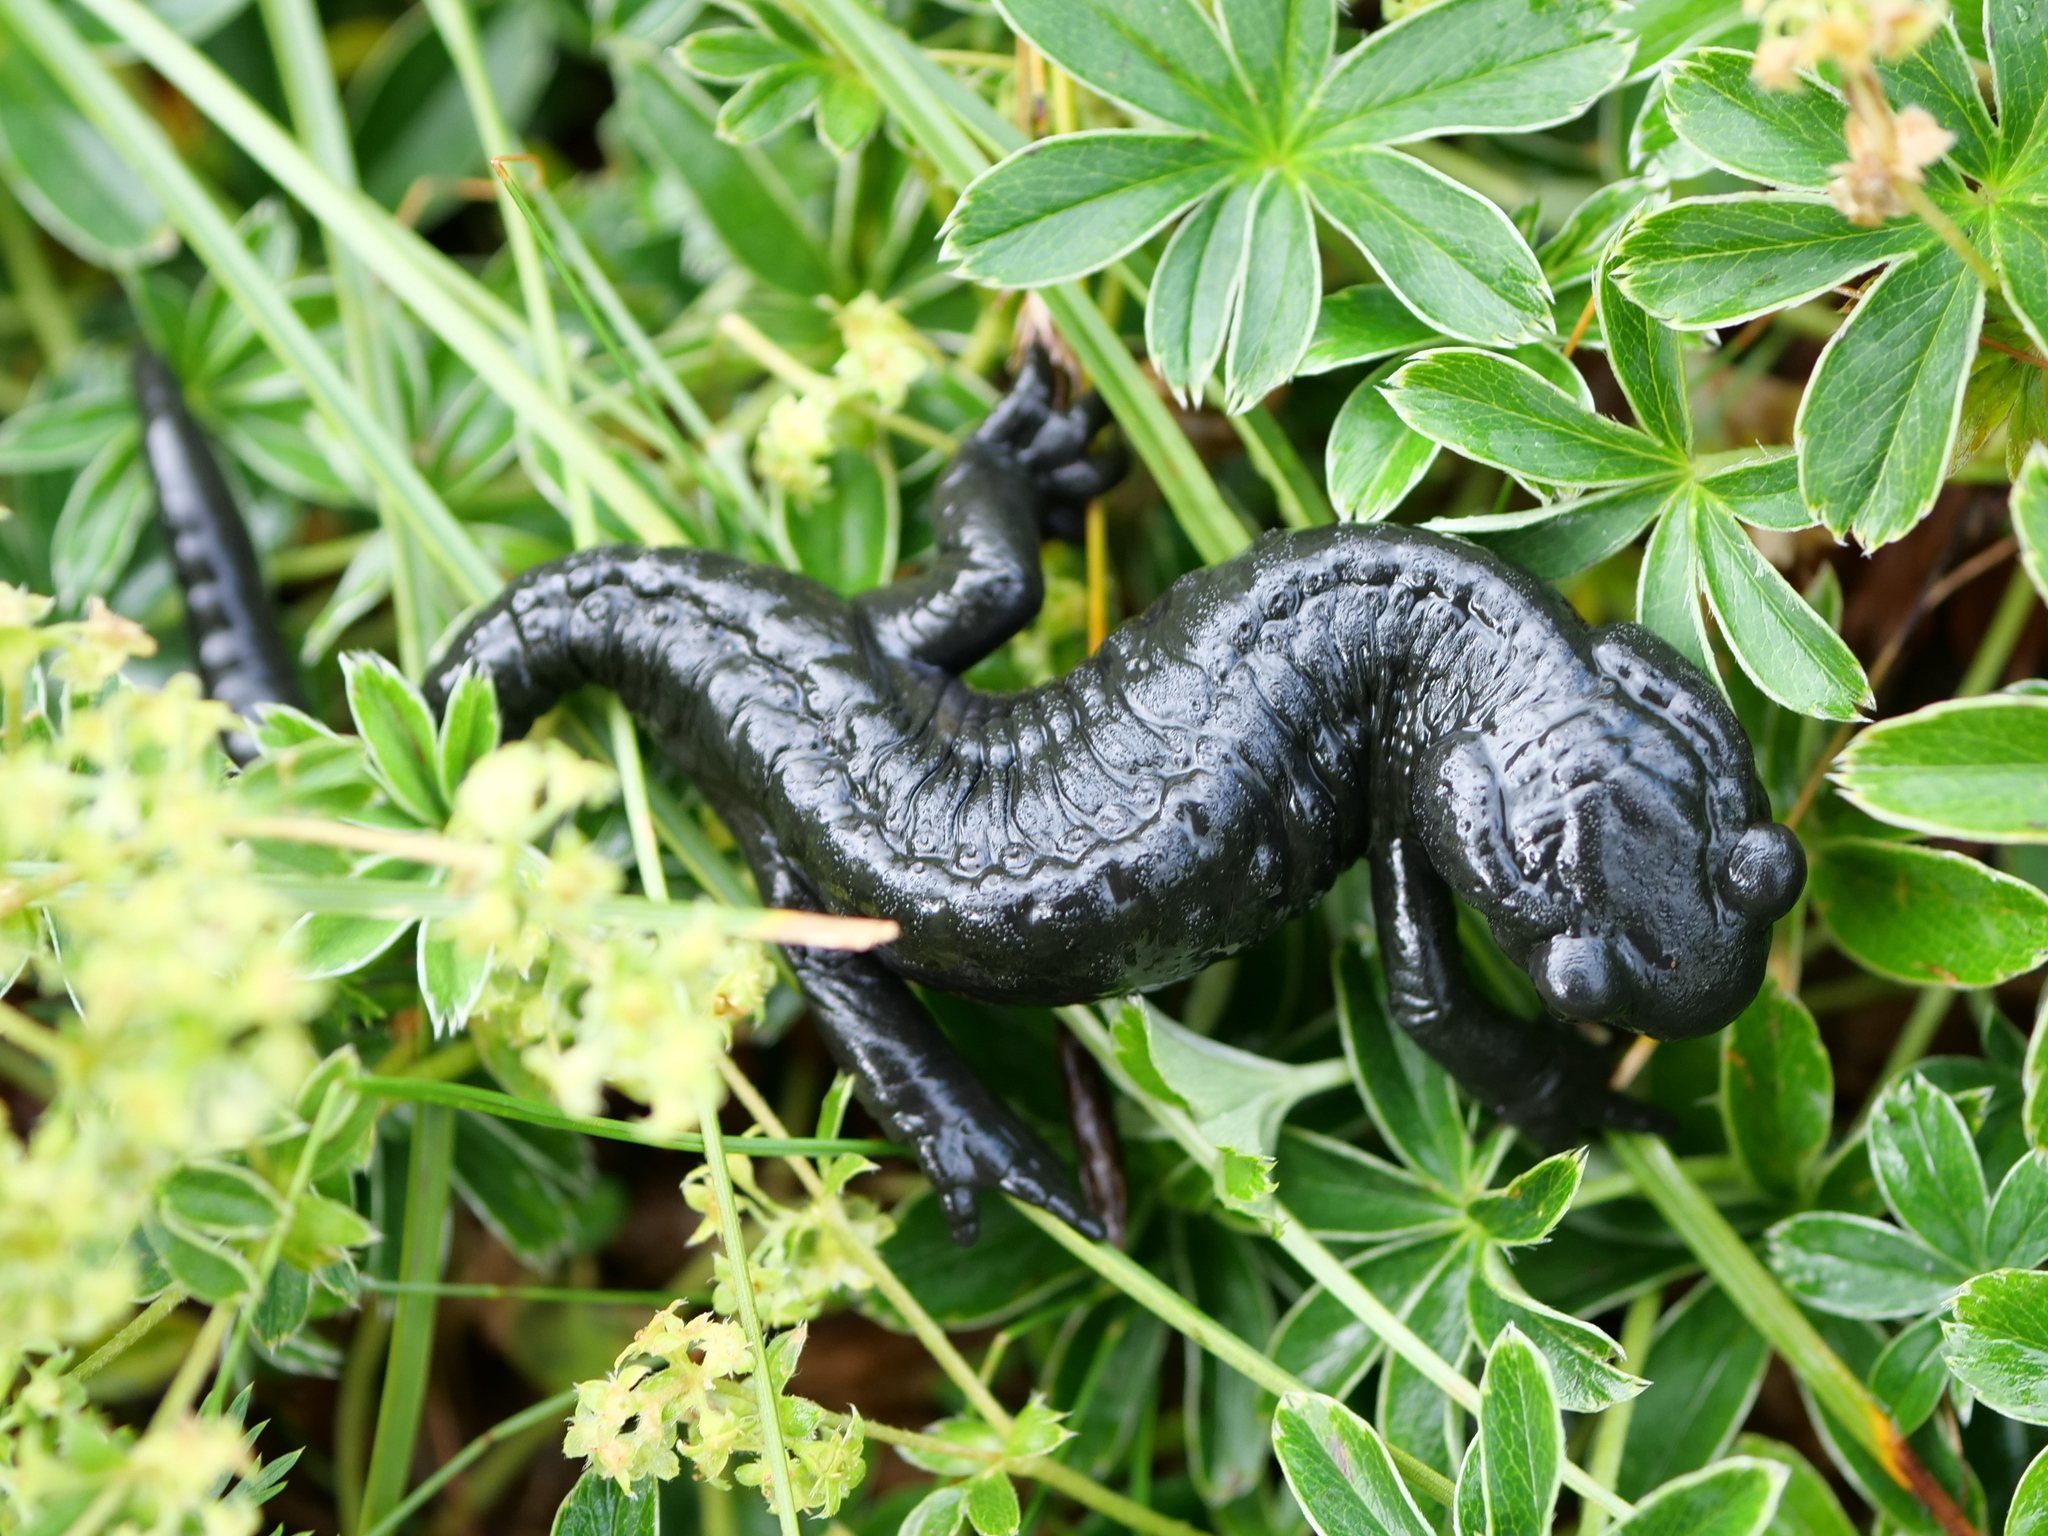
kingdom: Animalia
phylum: Chordata
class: Amphibia
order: Caudata
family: Salamandridae
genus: Salamandra
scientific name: Salamandra atra
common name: Alpine salamander
